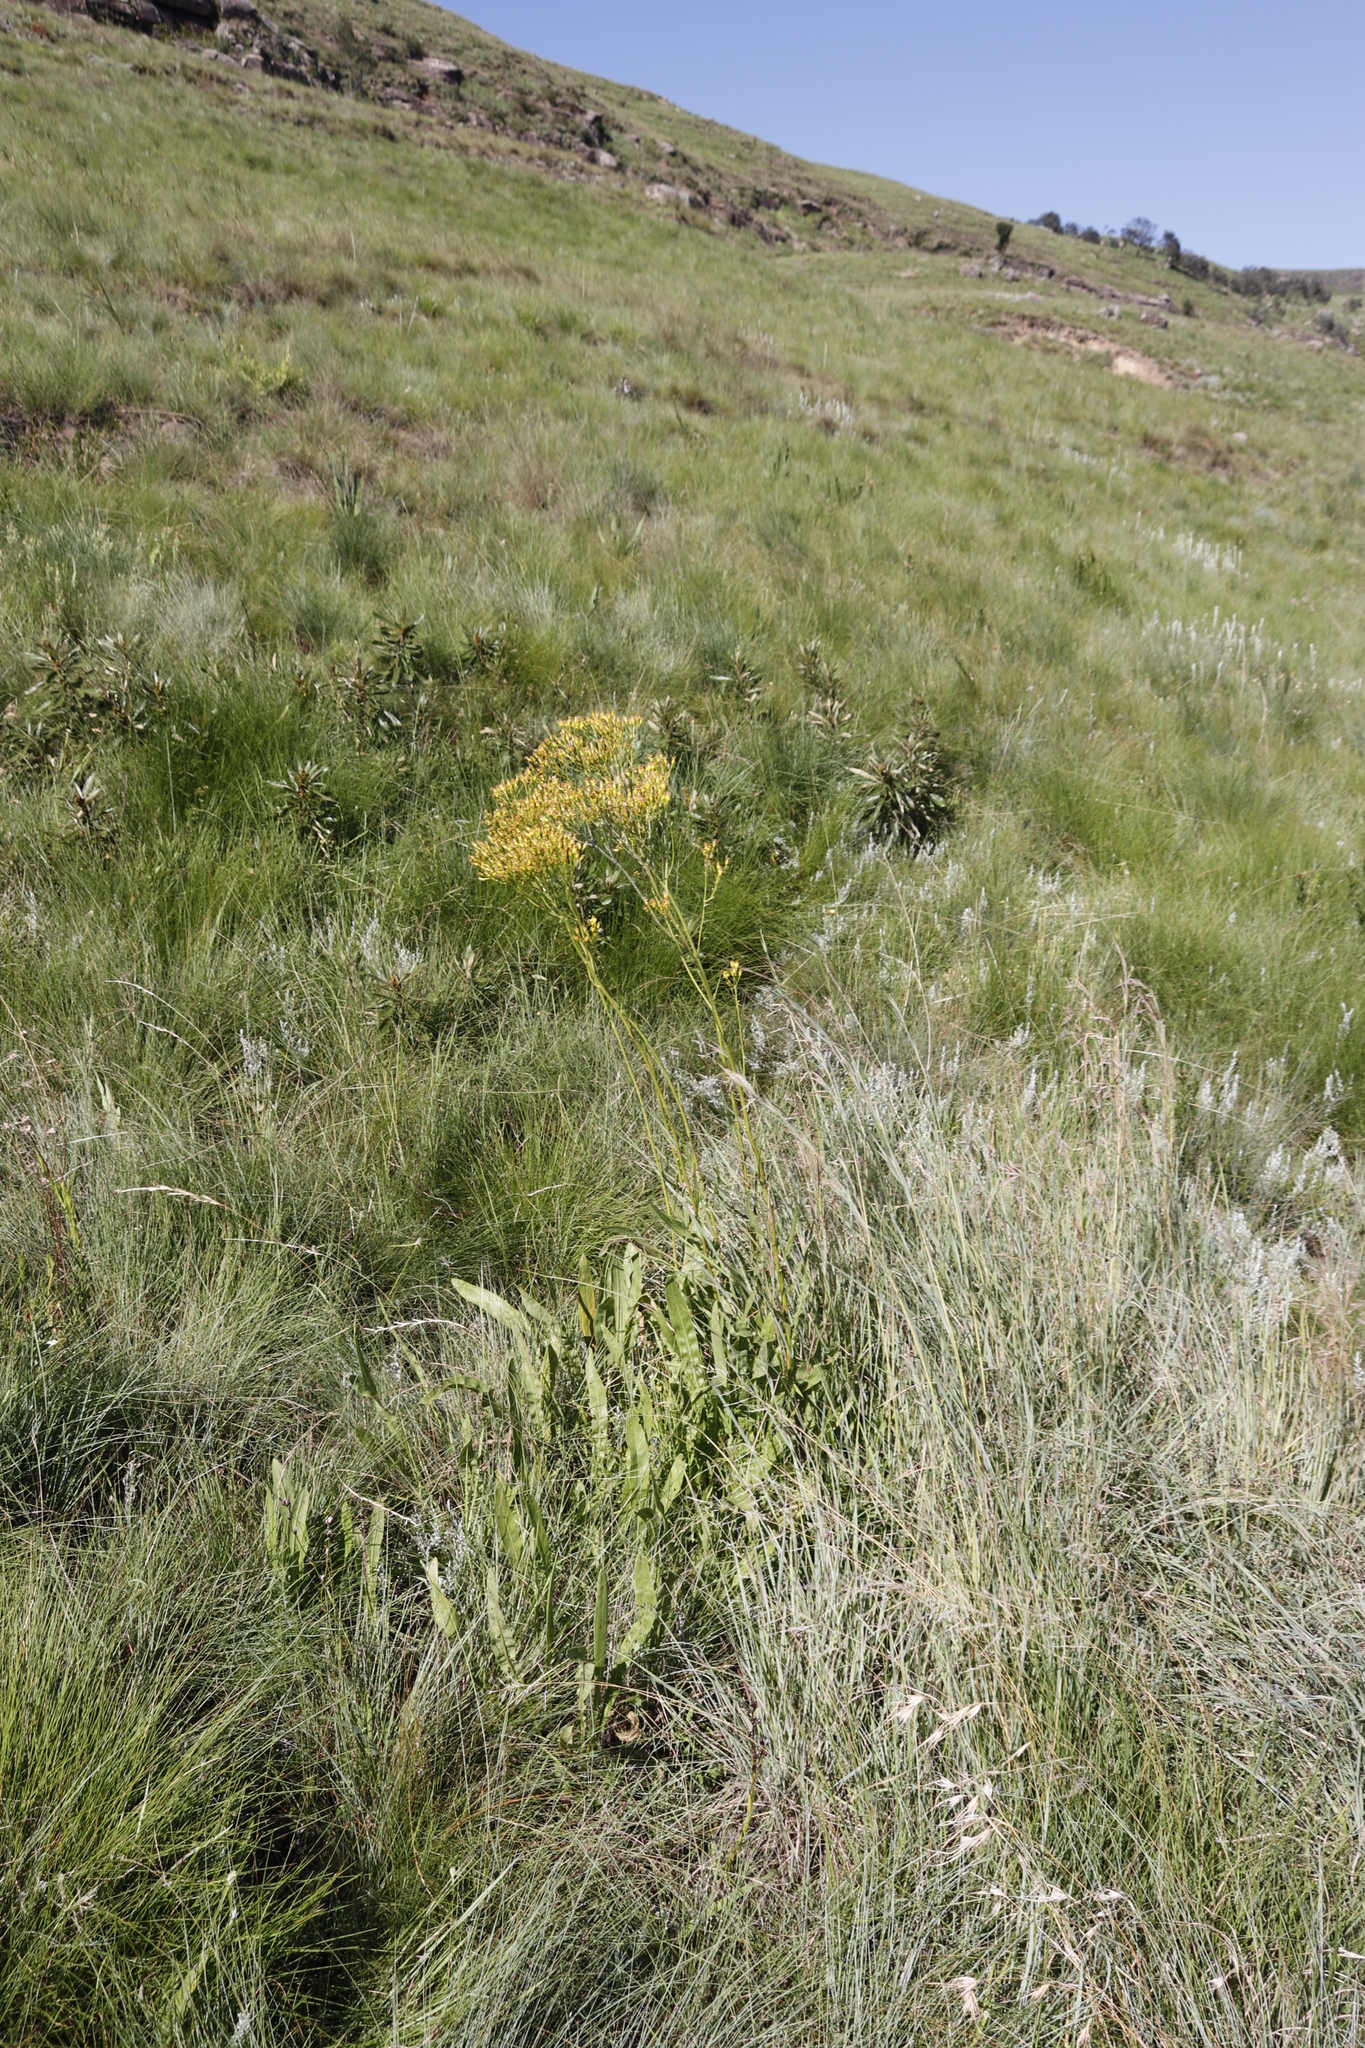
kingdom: Plantae
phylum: Tracheophyta
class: Magnoliopsida
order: Asterales
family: Asteraceae
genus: Senecio
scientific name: Senecio isatideus
